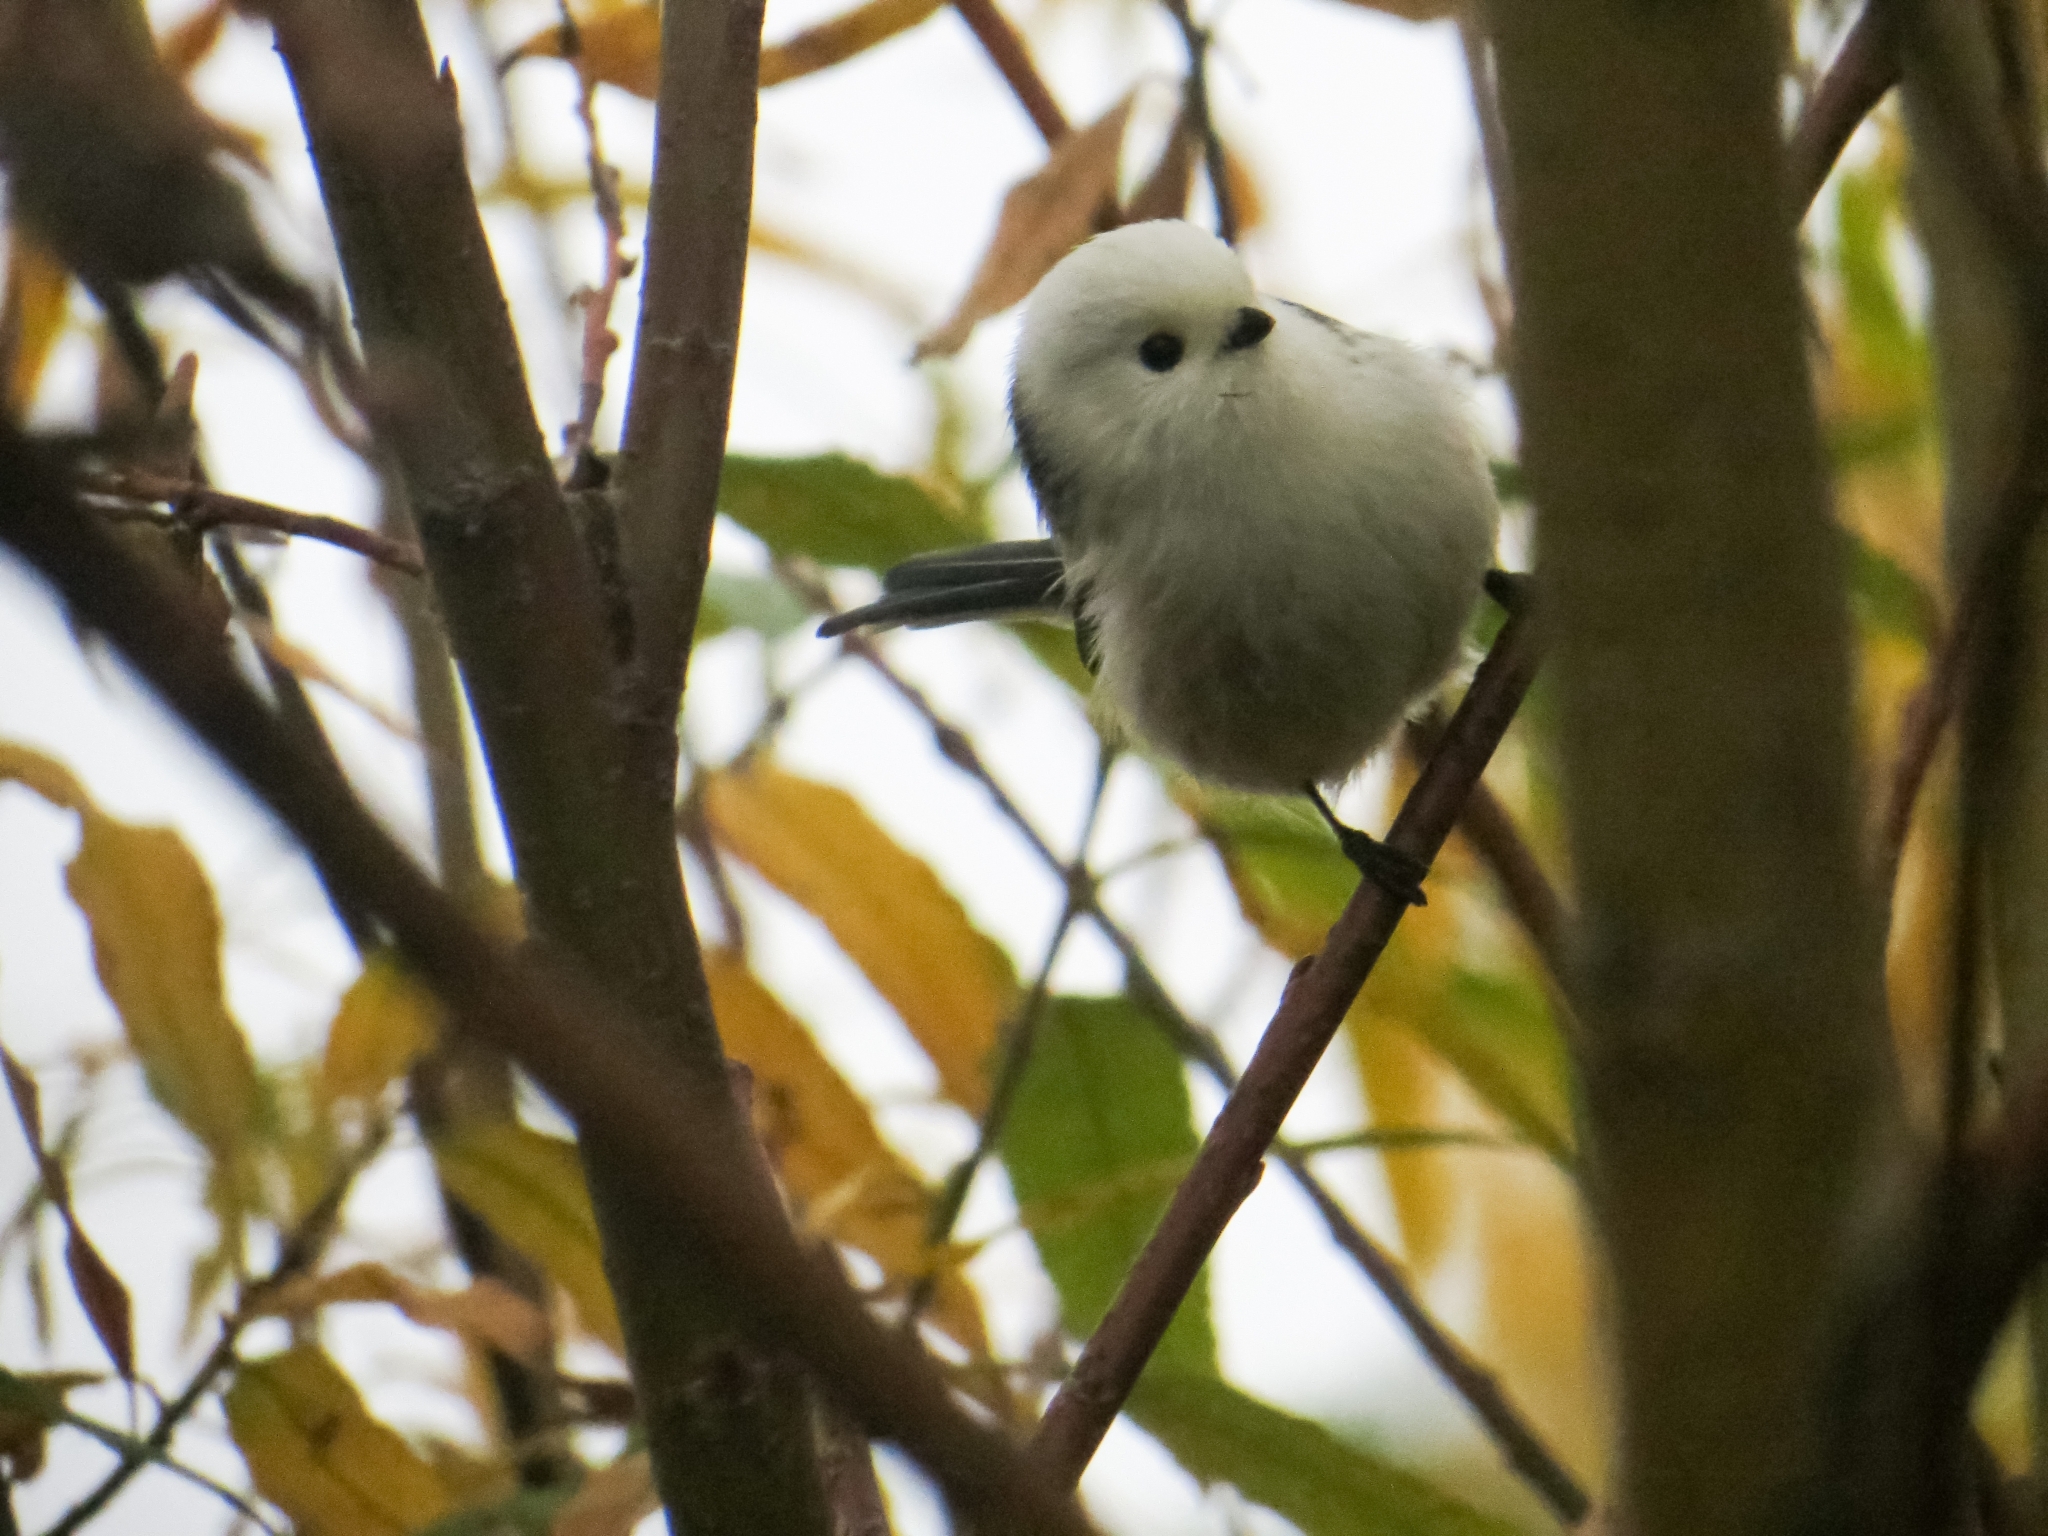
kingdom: Animalia
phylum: Chordata
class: Aves
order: Passeriformes
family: Aegithalidae
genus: Aegithalos
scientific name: Aegithalos caudatus
